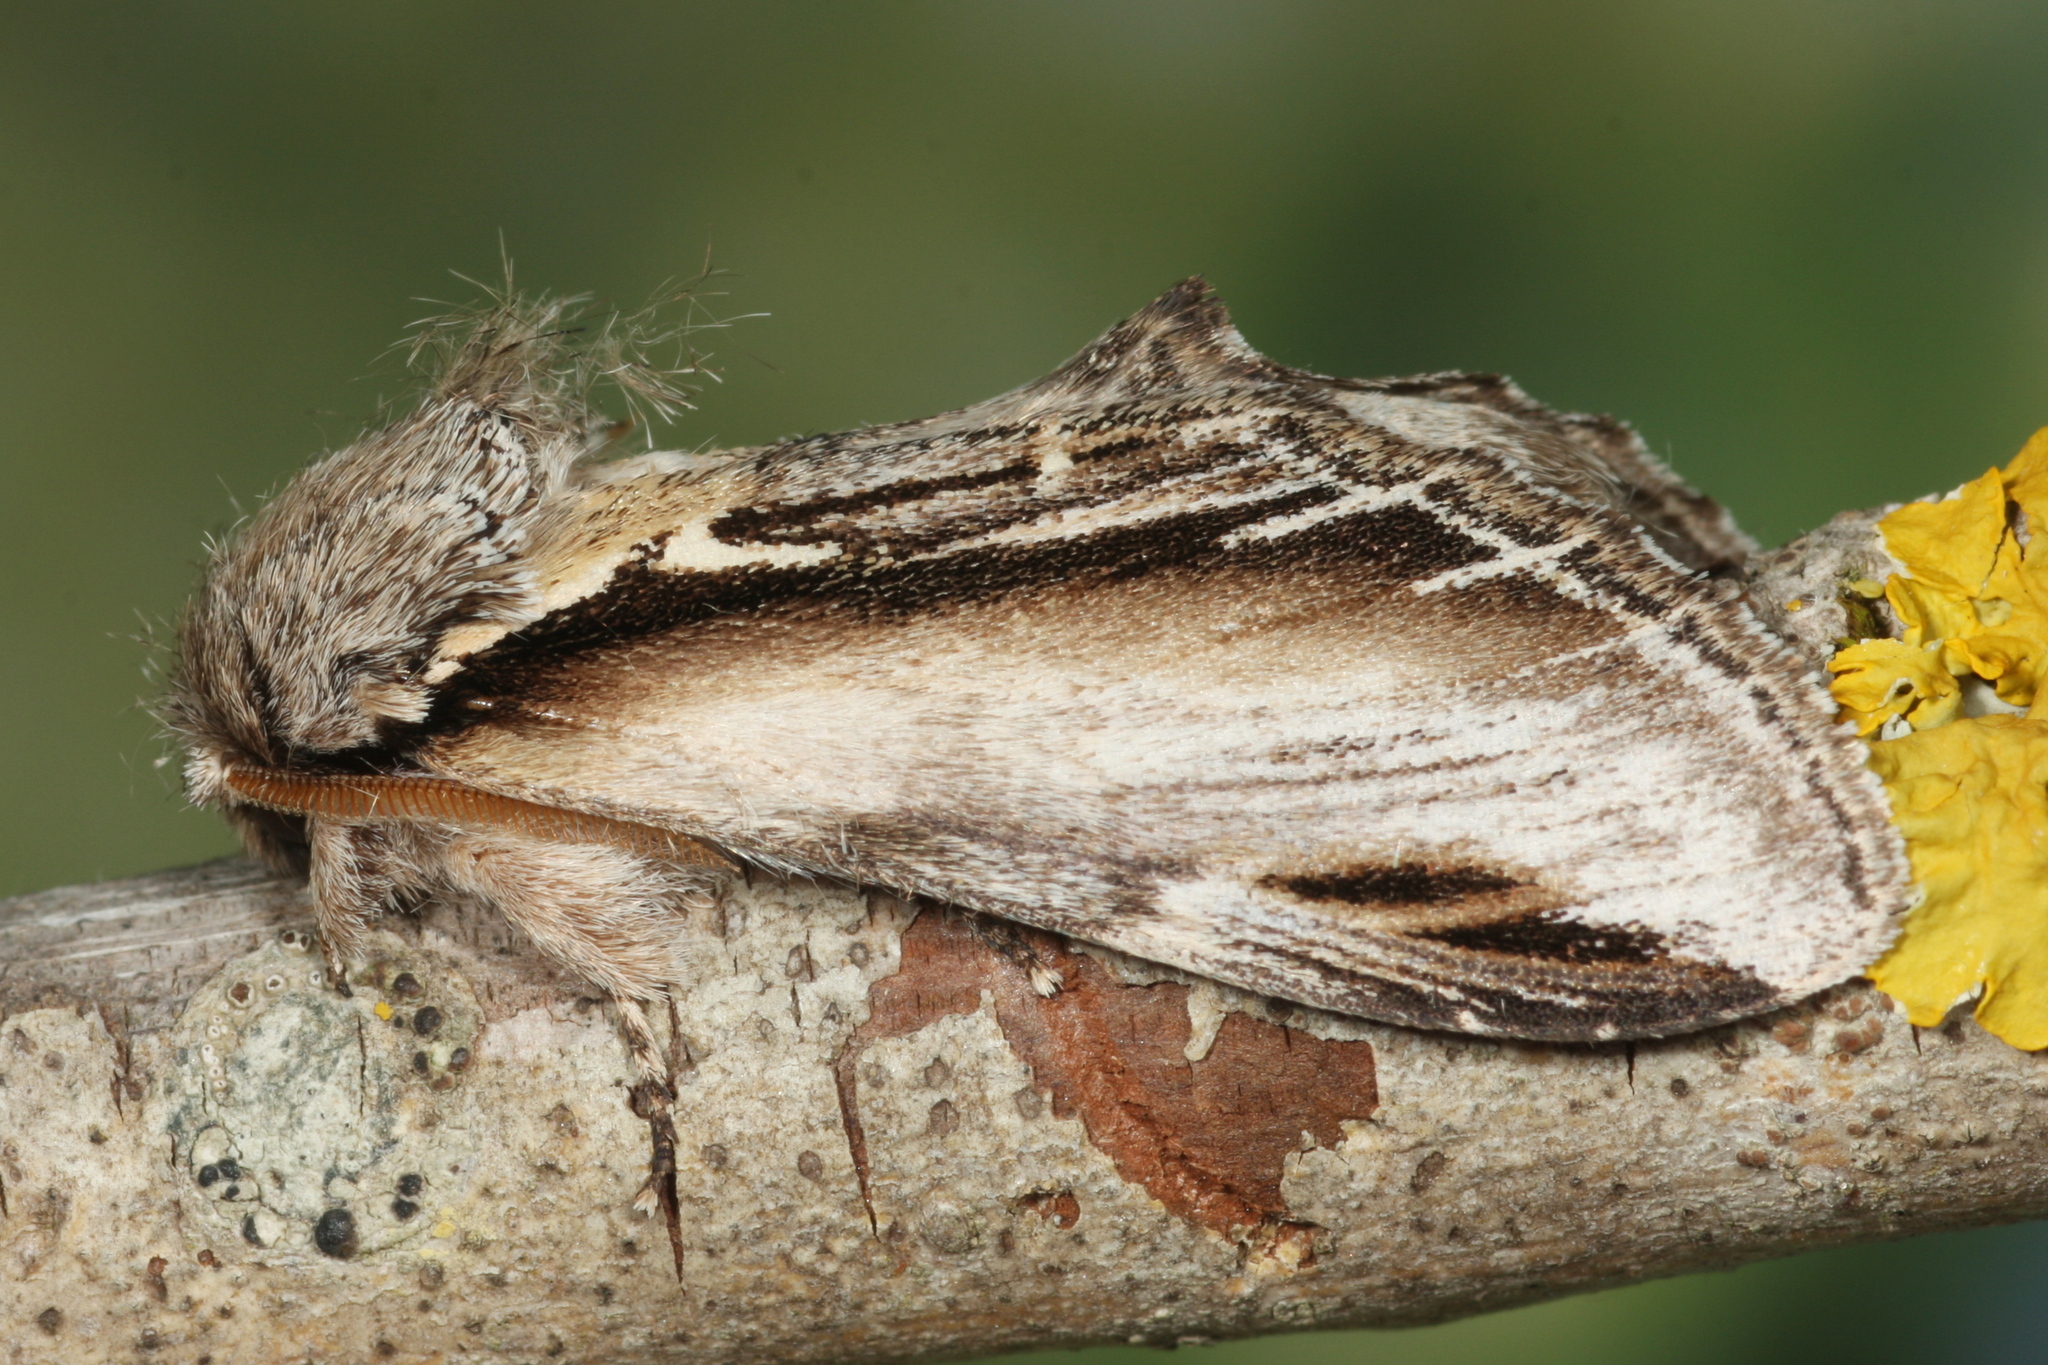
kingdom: Animalia
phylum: Arthropoda
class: Insecta
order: Lepidoptera
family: Notodontidae
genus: Pheosia
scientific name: Pheosia tremula
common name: Swallow prominent
